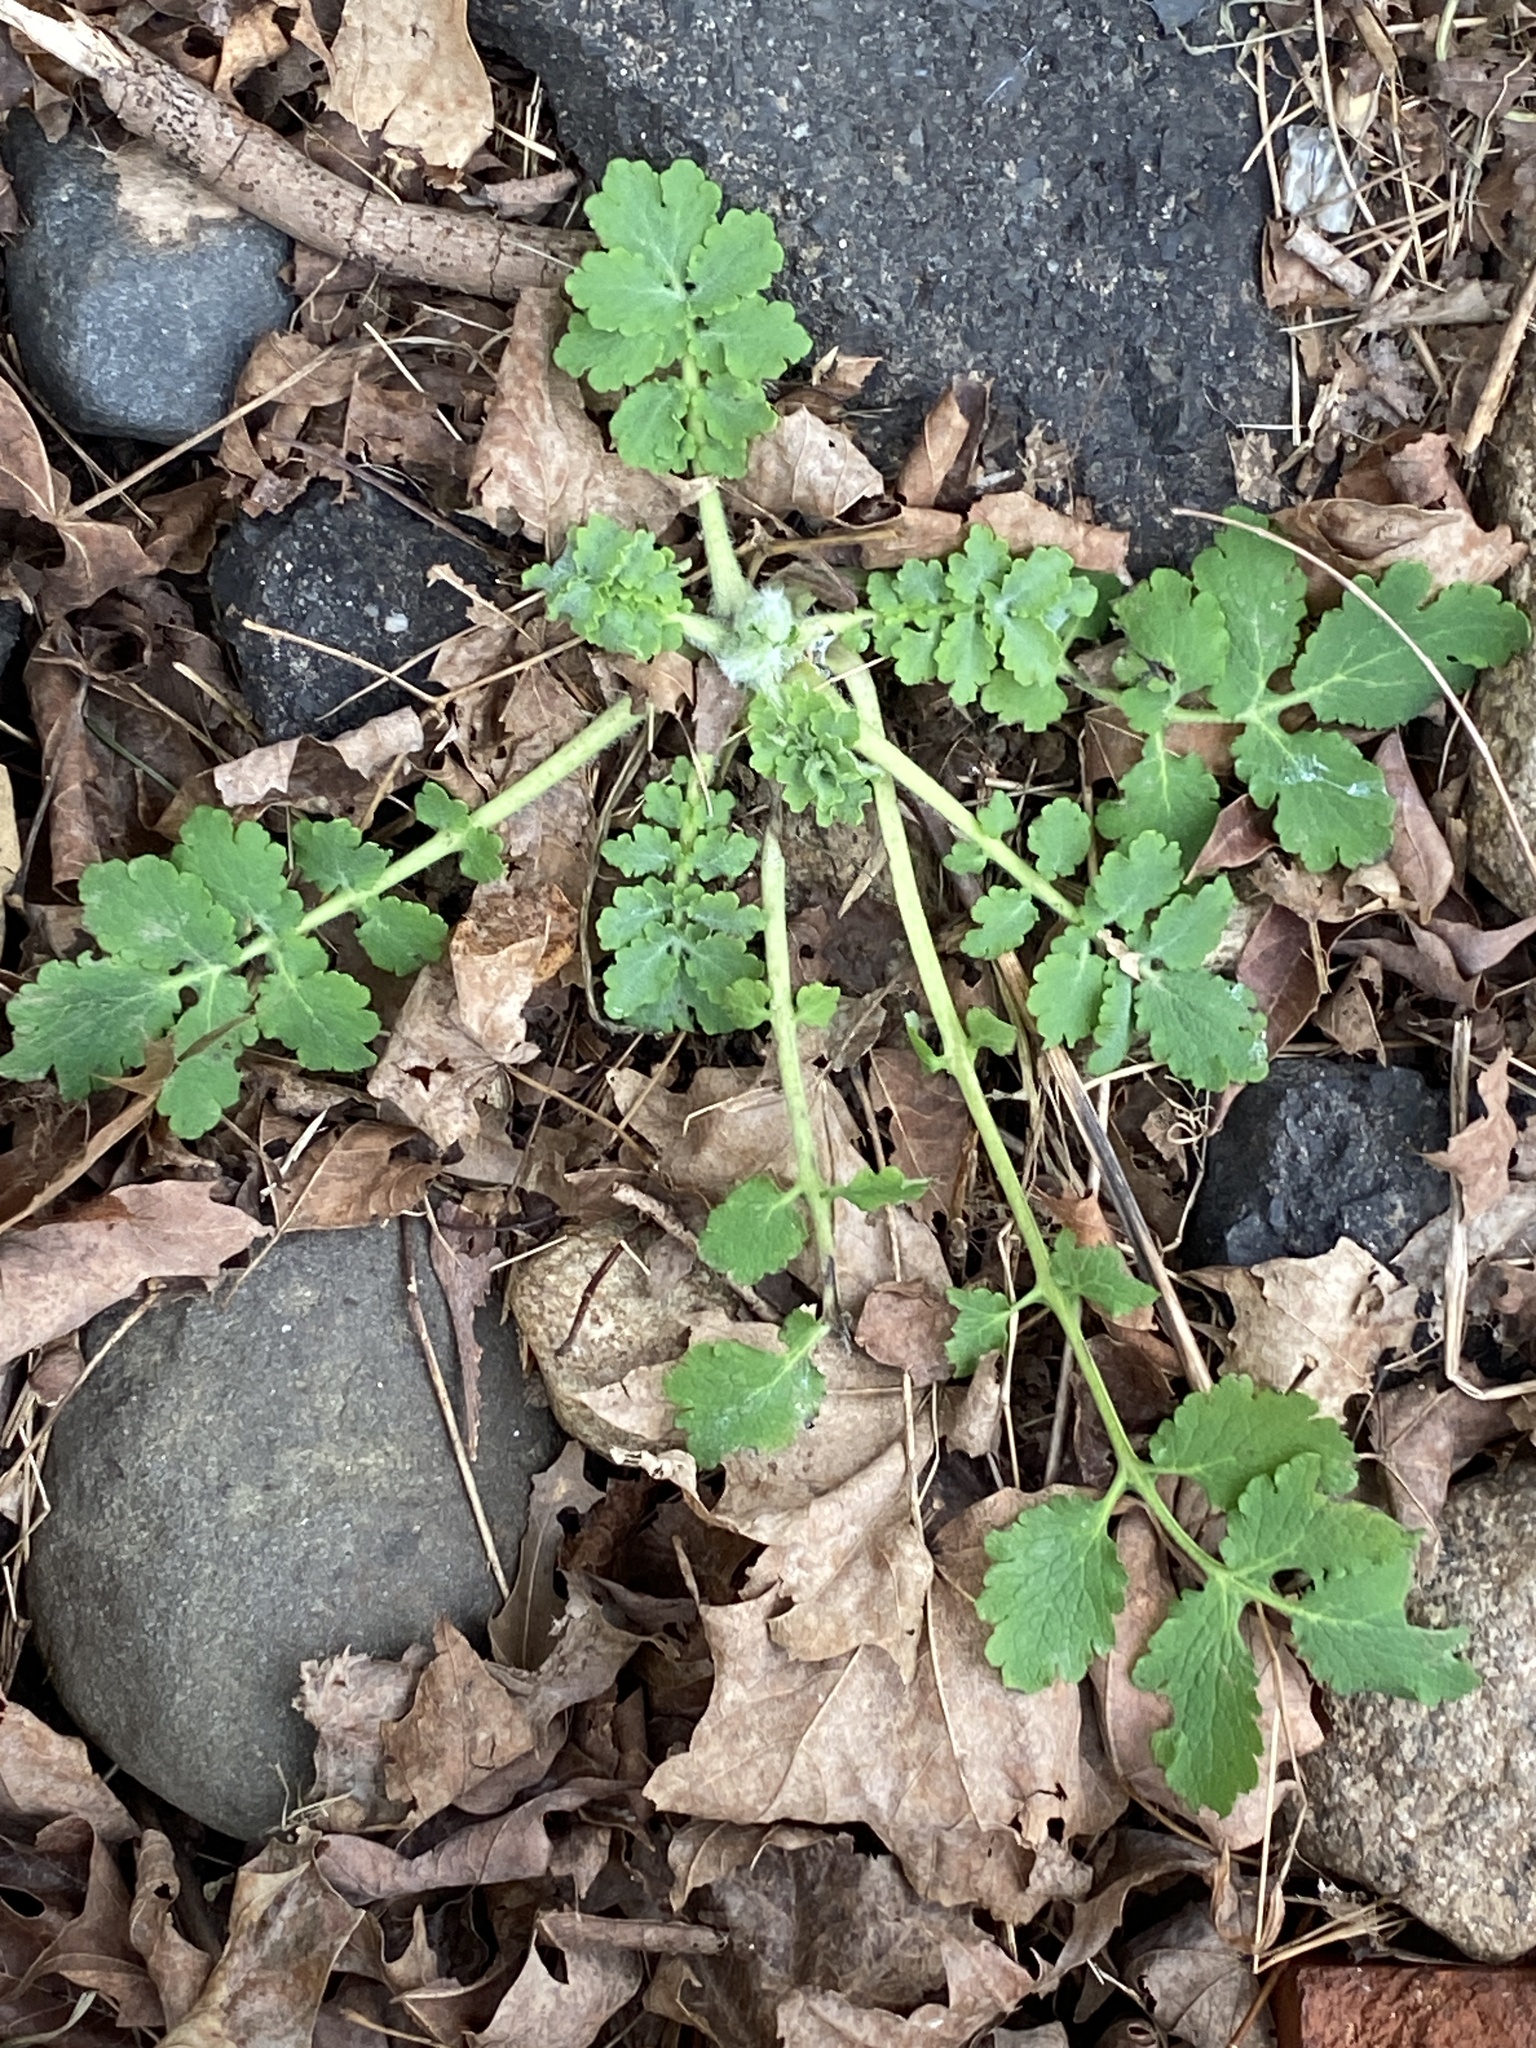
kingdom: Plantae
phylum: Tracheophyta
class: Magnoliopsida
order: Ranunculales
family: Papaveraceae
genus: Chelidonium
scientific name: Chelidonium majus
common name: Greater celandine
